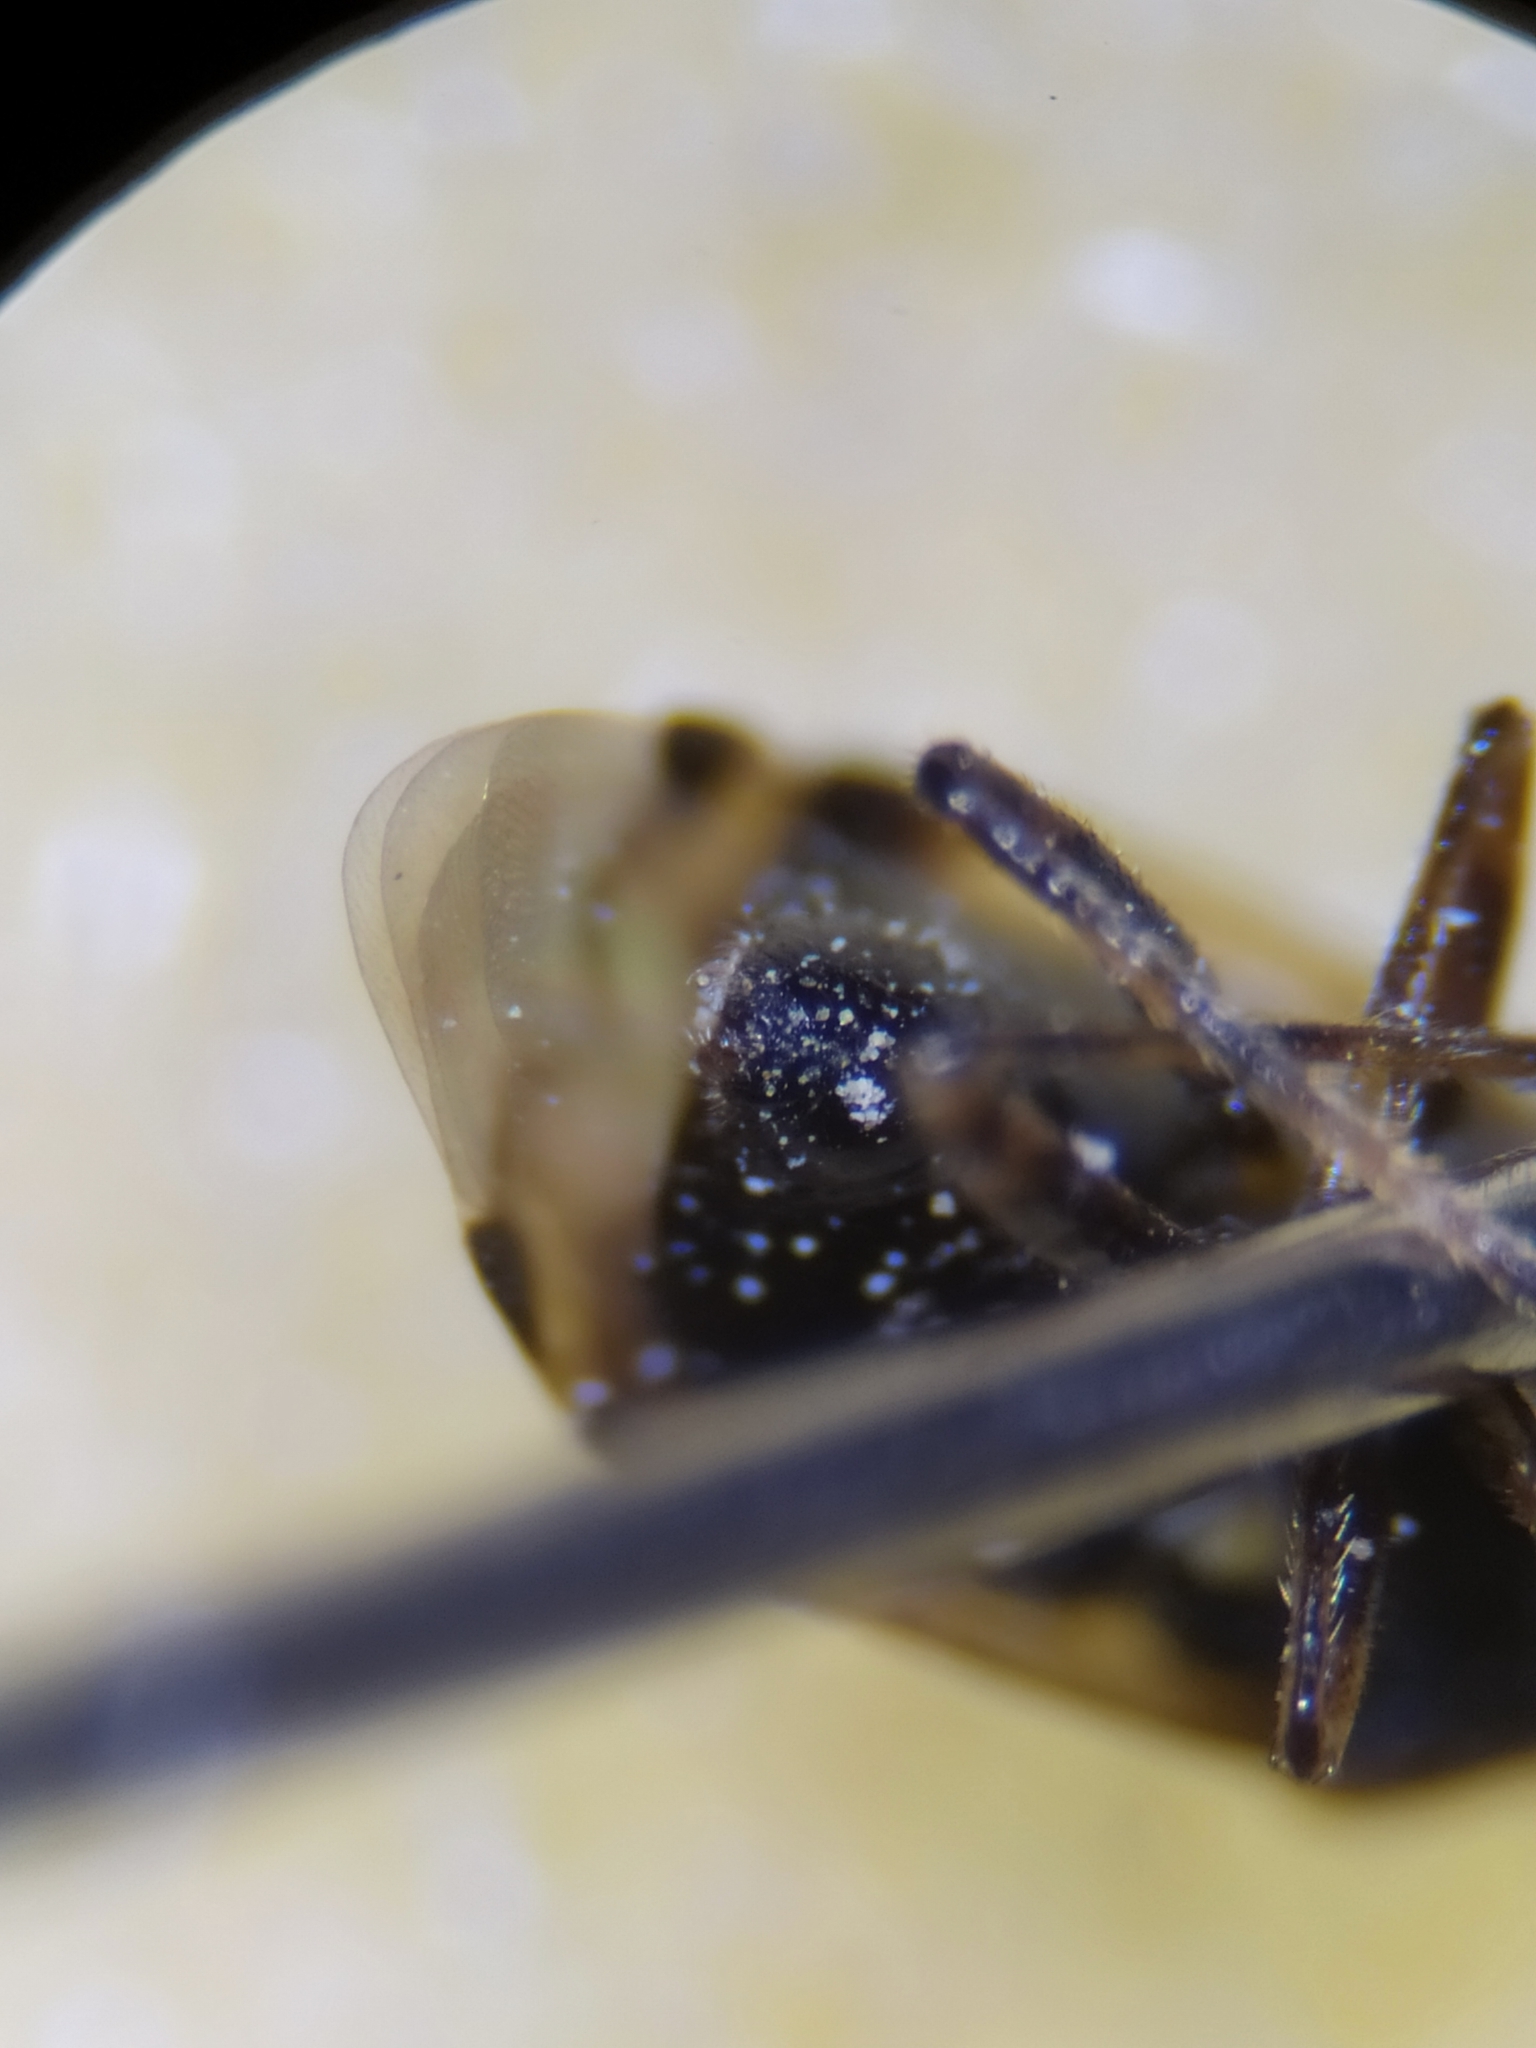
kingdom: Animalia
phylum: Arthropoda
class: Insecta
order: Hemiptera
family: Miridae
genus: Deraeocoris
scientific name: Deraeocoris punctulatus
